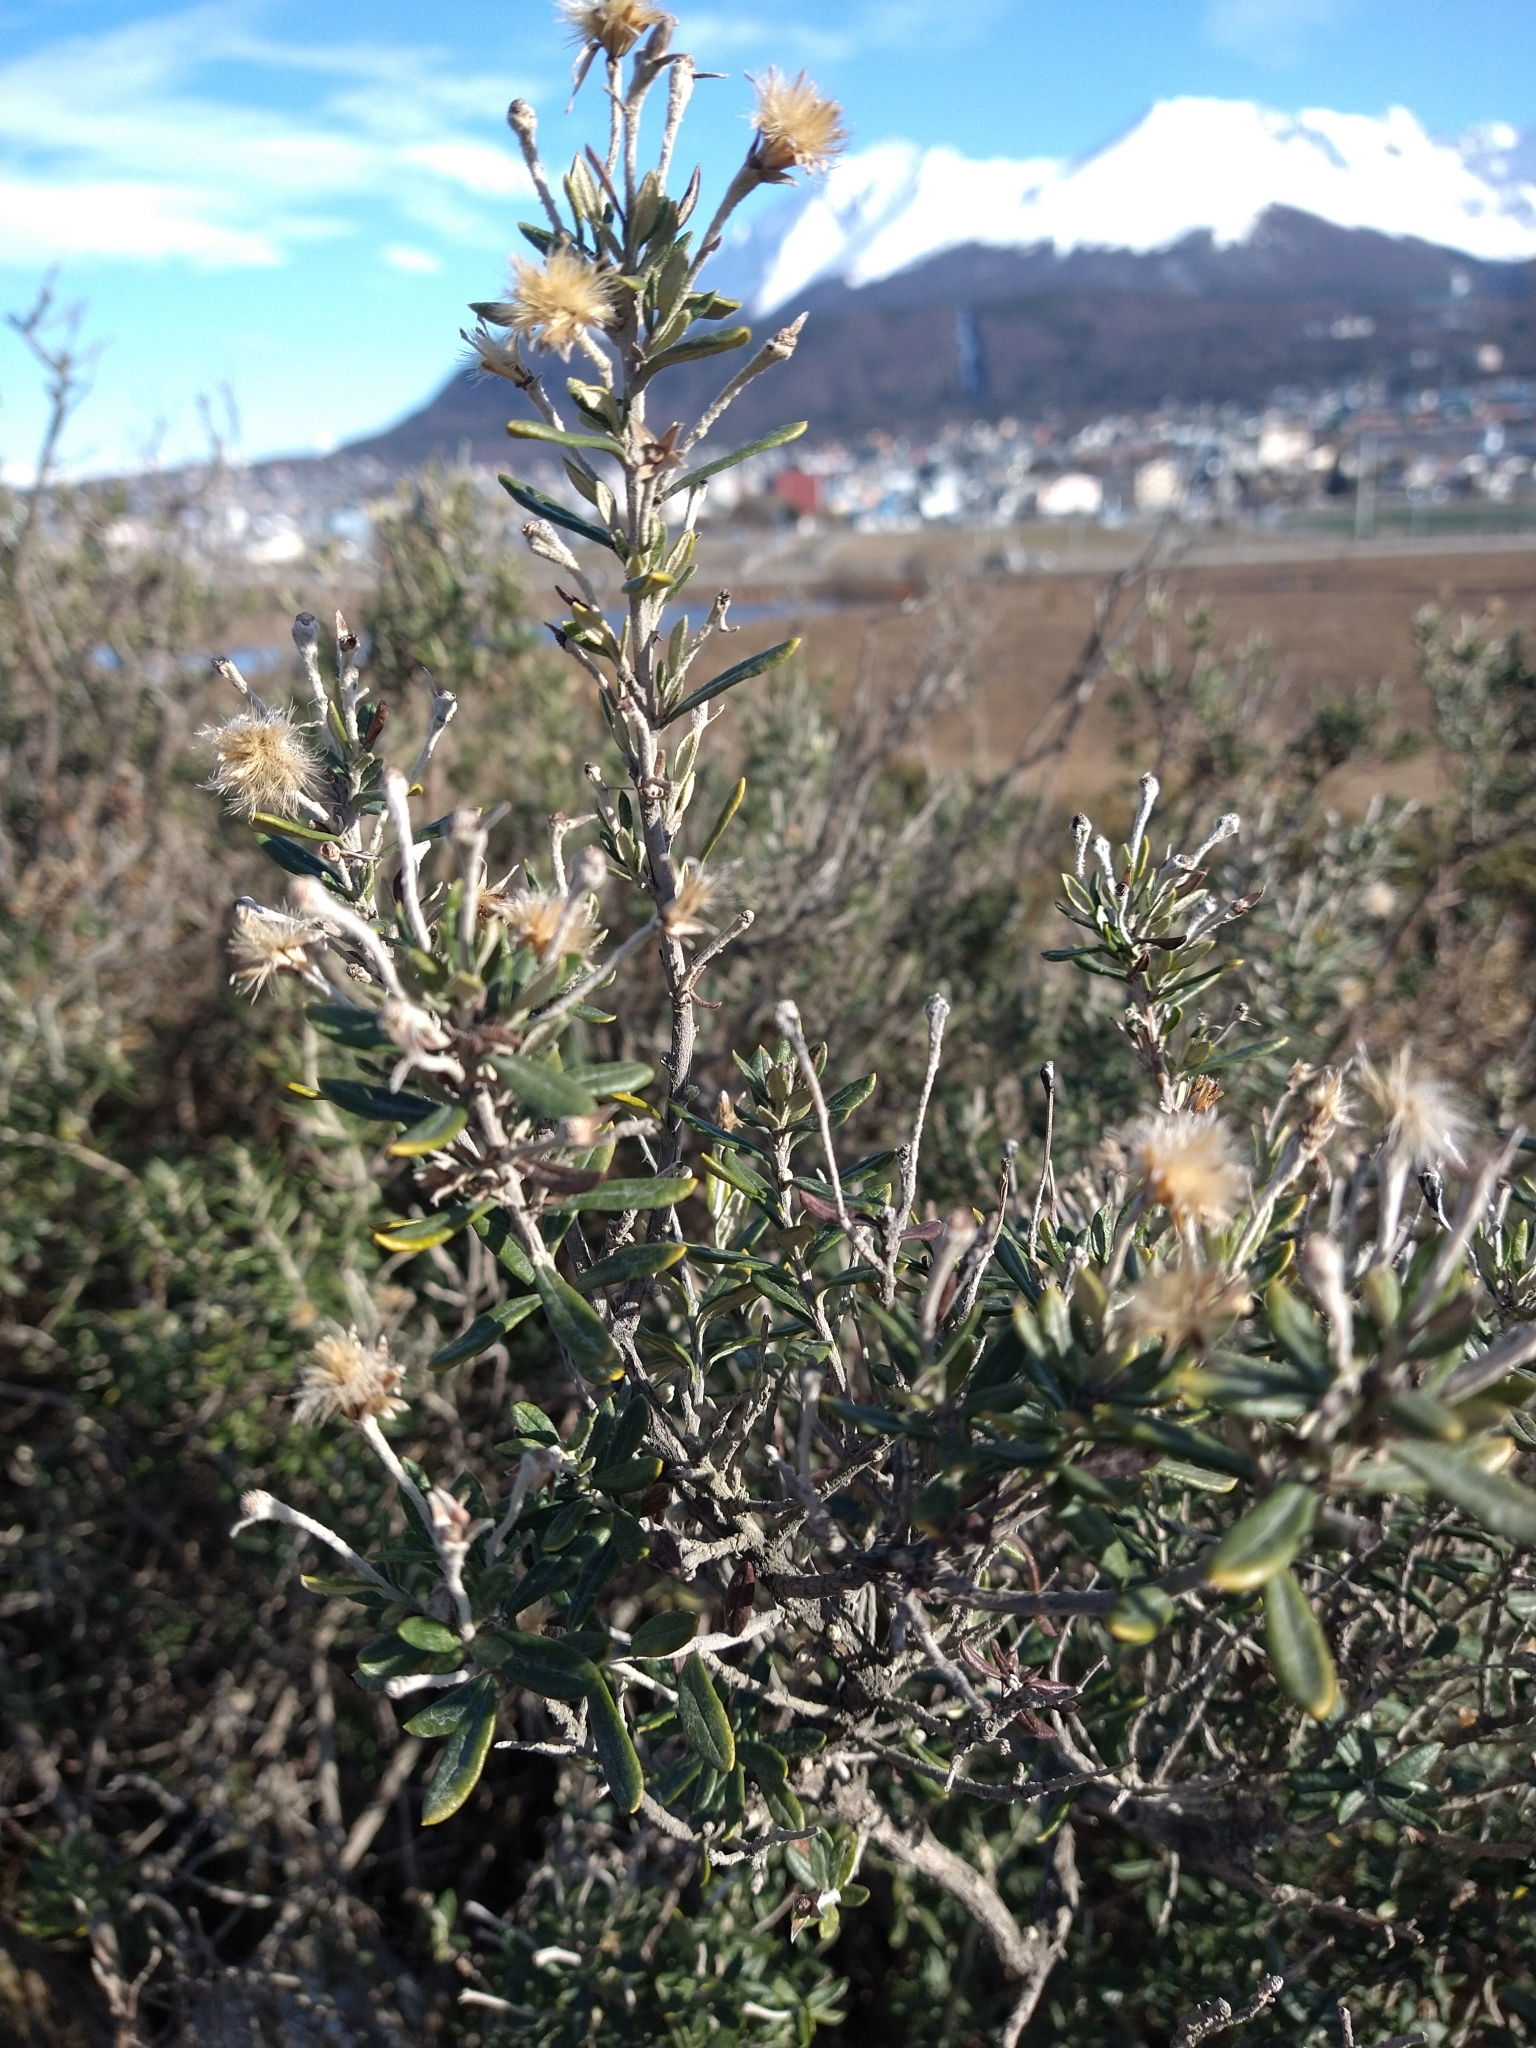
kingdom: Plantae
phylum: Tracheophyta
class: Magnoliopsida
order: Asterales
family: Asteraceae
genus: Chiliotrichum
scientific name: Chiliotrichum diffusum
